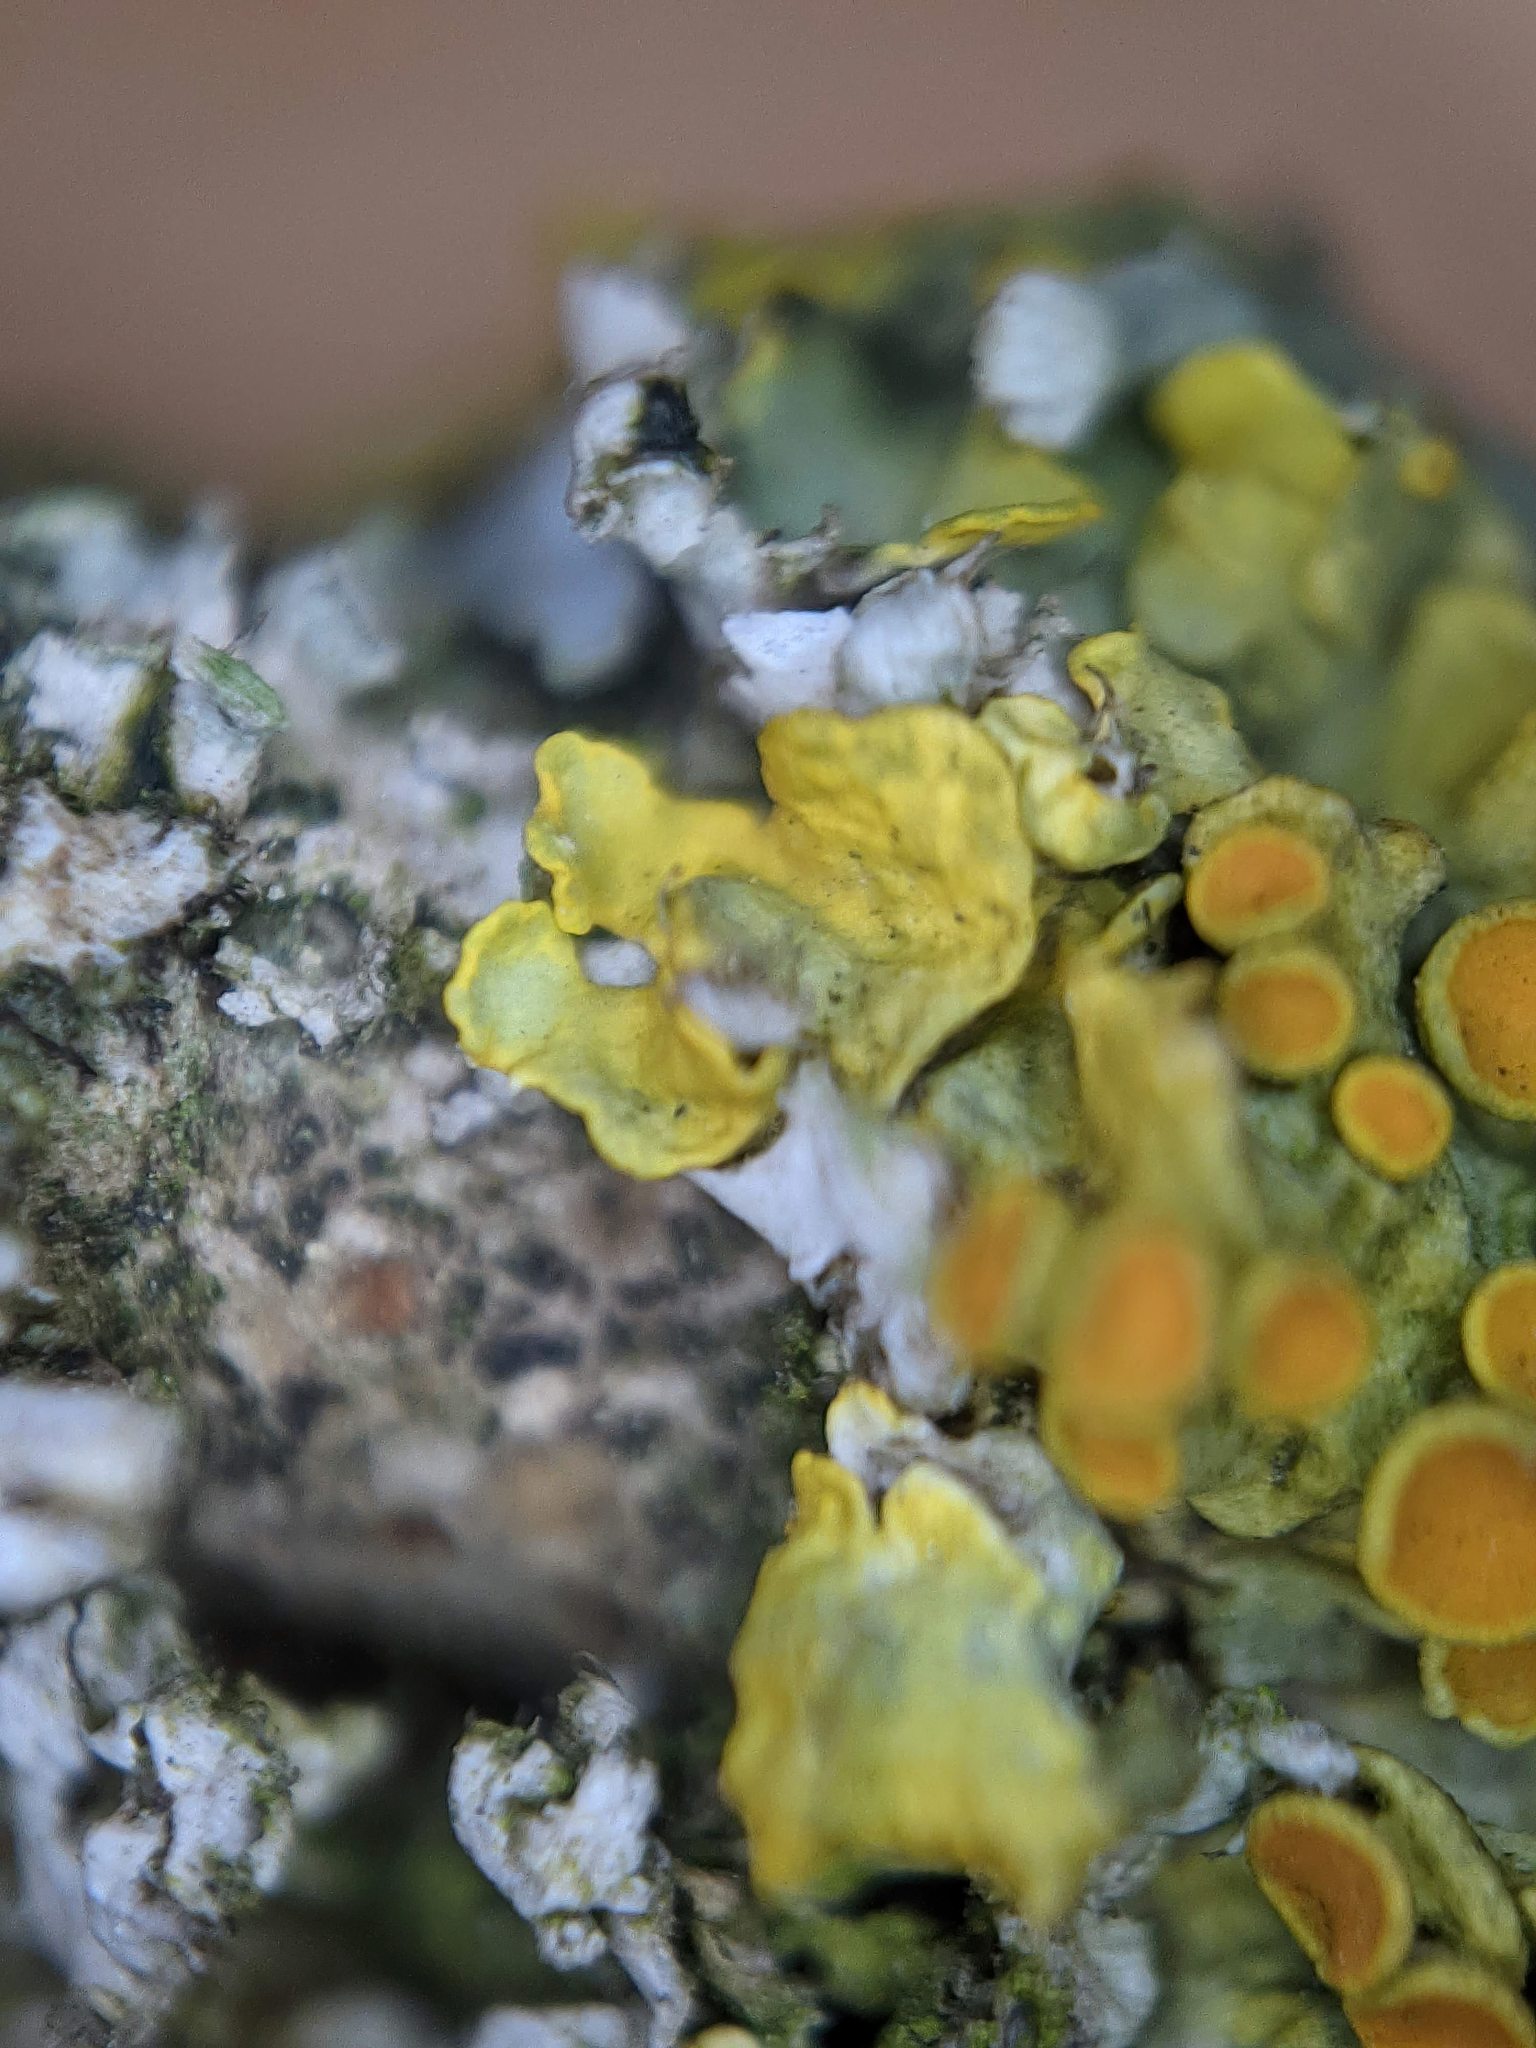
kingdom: Fungi
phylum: Ascomycota
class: Lecanoromycetes
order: Teloschistales
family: Teloschistaceae
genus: Xanthoria
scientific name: Xanthoria parietina
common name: Common orange lichen
